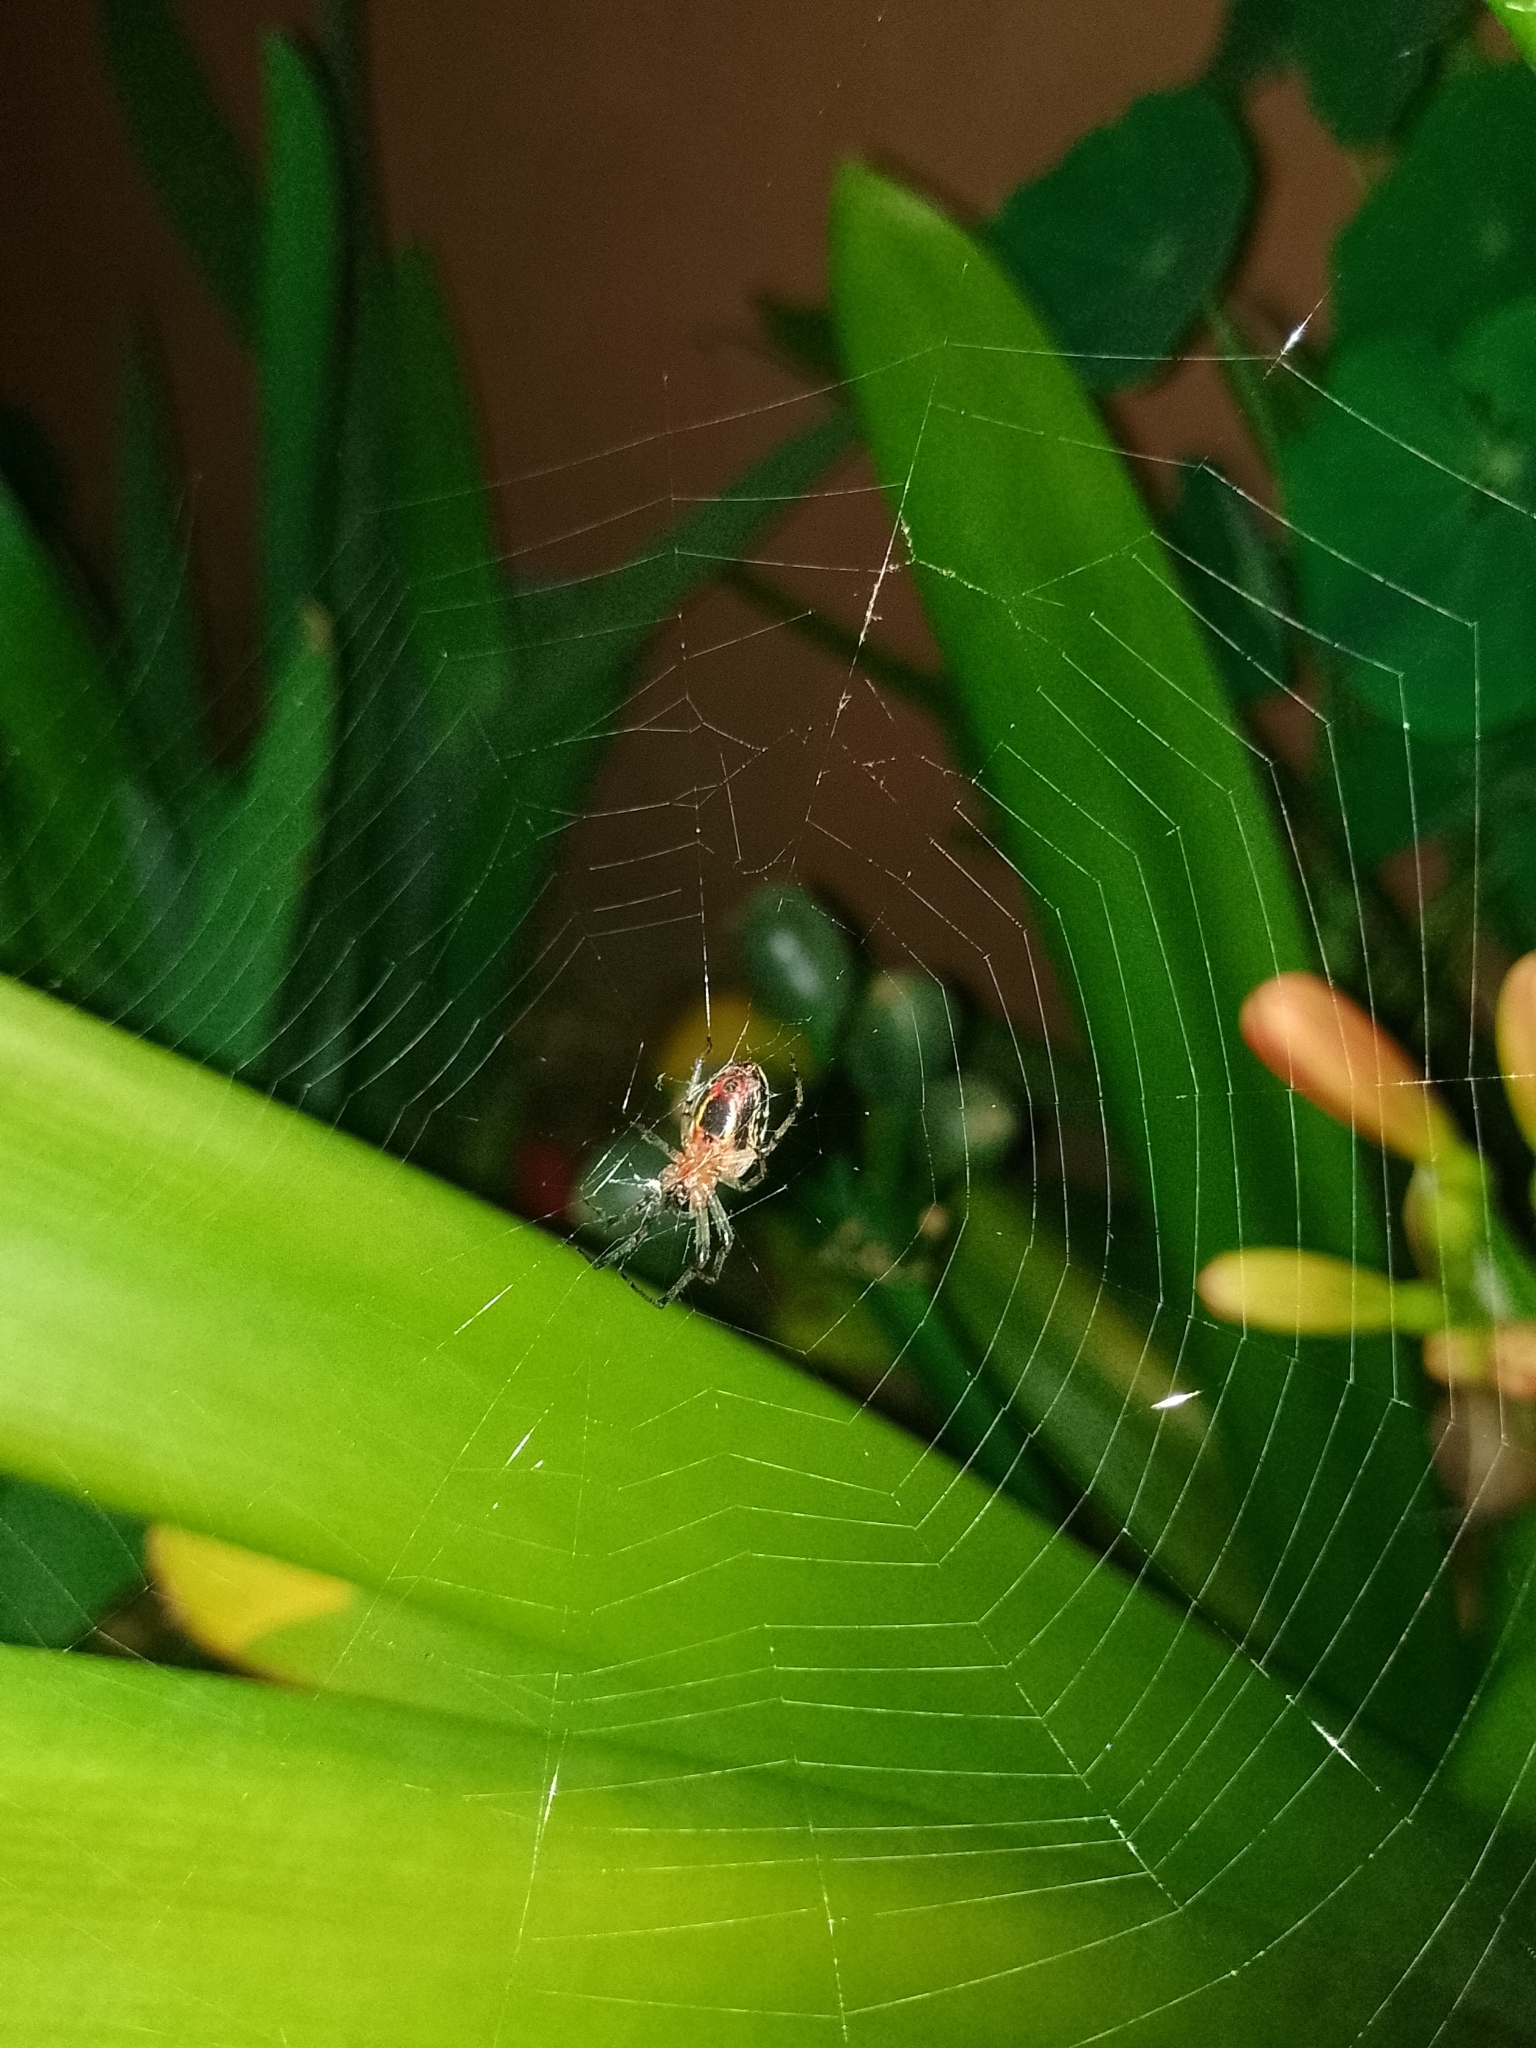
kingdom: Animalia
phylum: Arthropoda
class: Arachnida
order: Araneae
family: Araneidae
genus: Alpaida
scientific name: Alpaida veniliae
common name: Orb weavers
